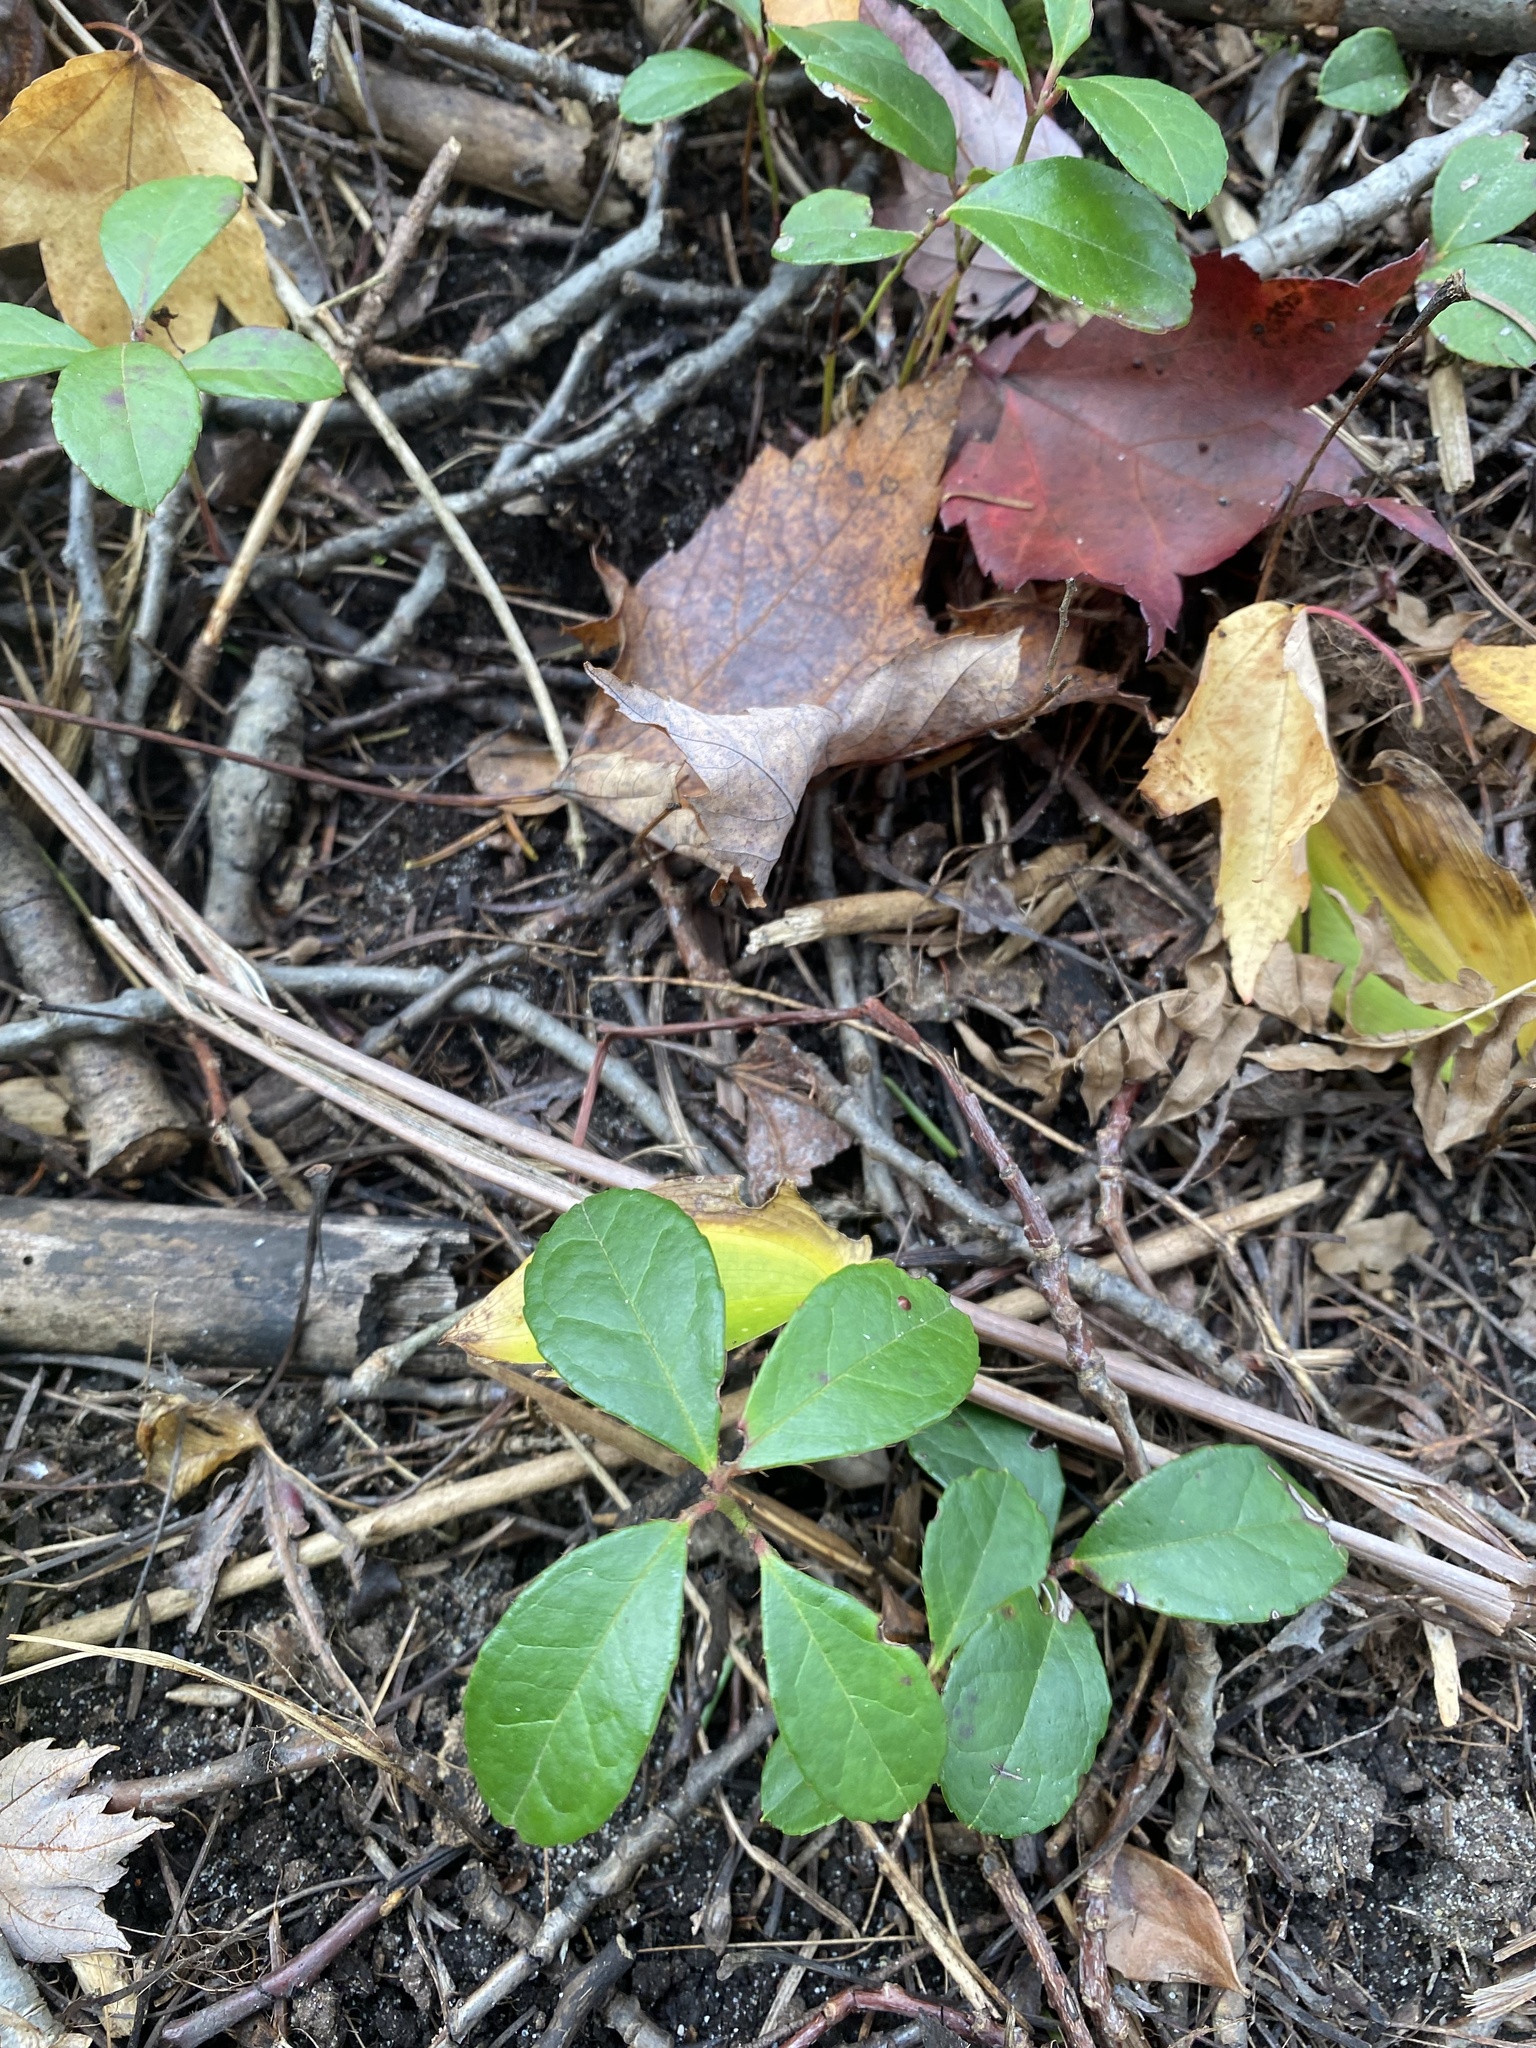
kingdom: Plantae
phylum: Tracheophyta
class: Magnoliopsida
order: Ericales
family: Ericaceae
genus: Gaultheria
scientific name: Gaultheria procumbens
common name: Checkerberry
